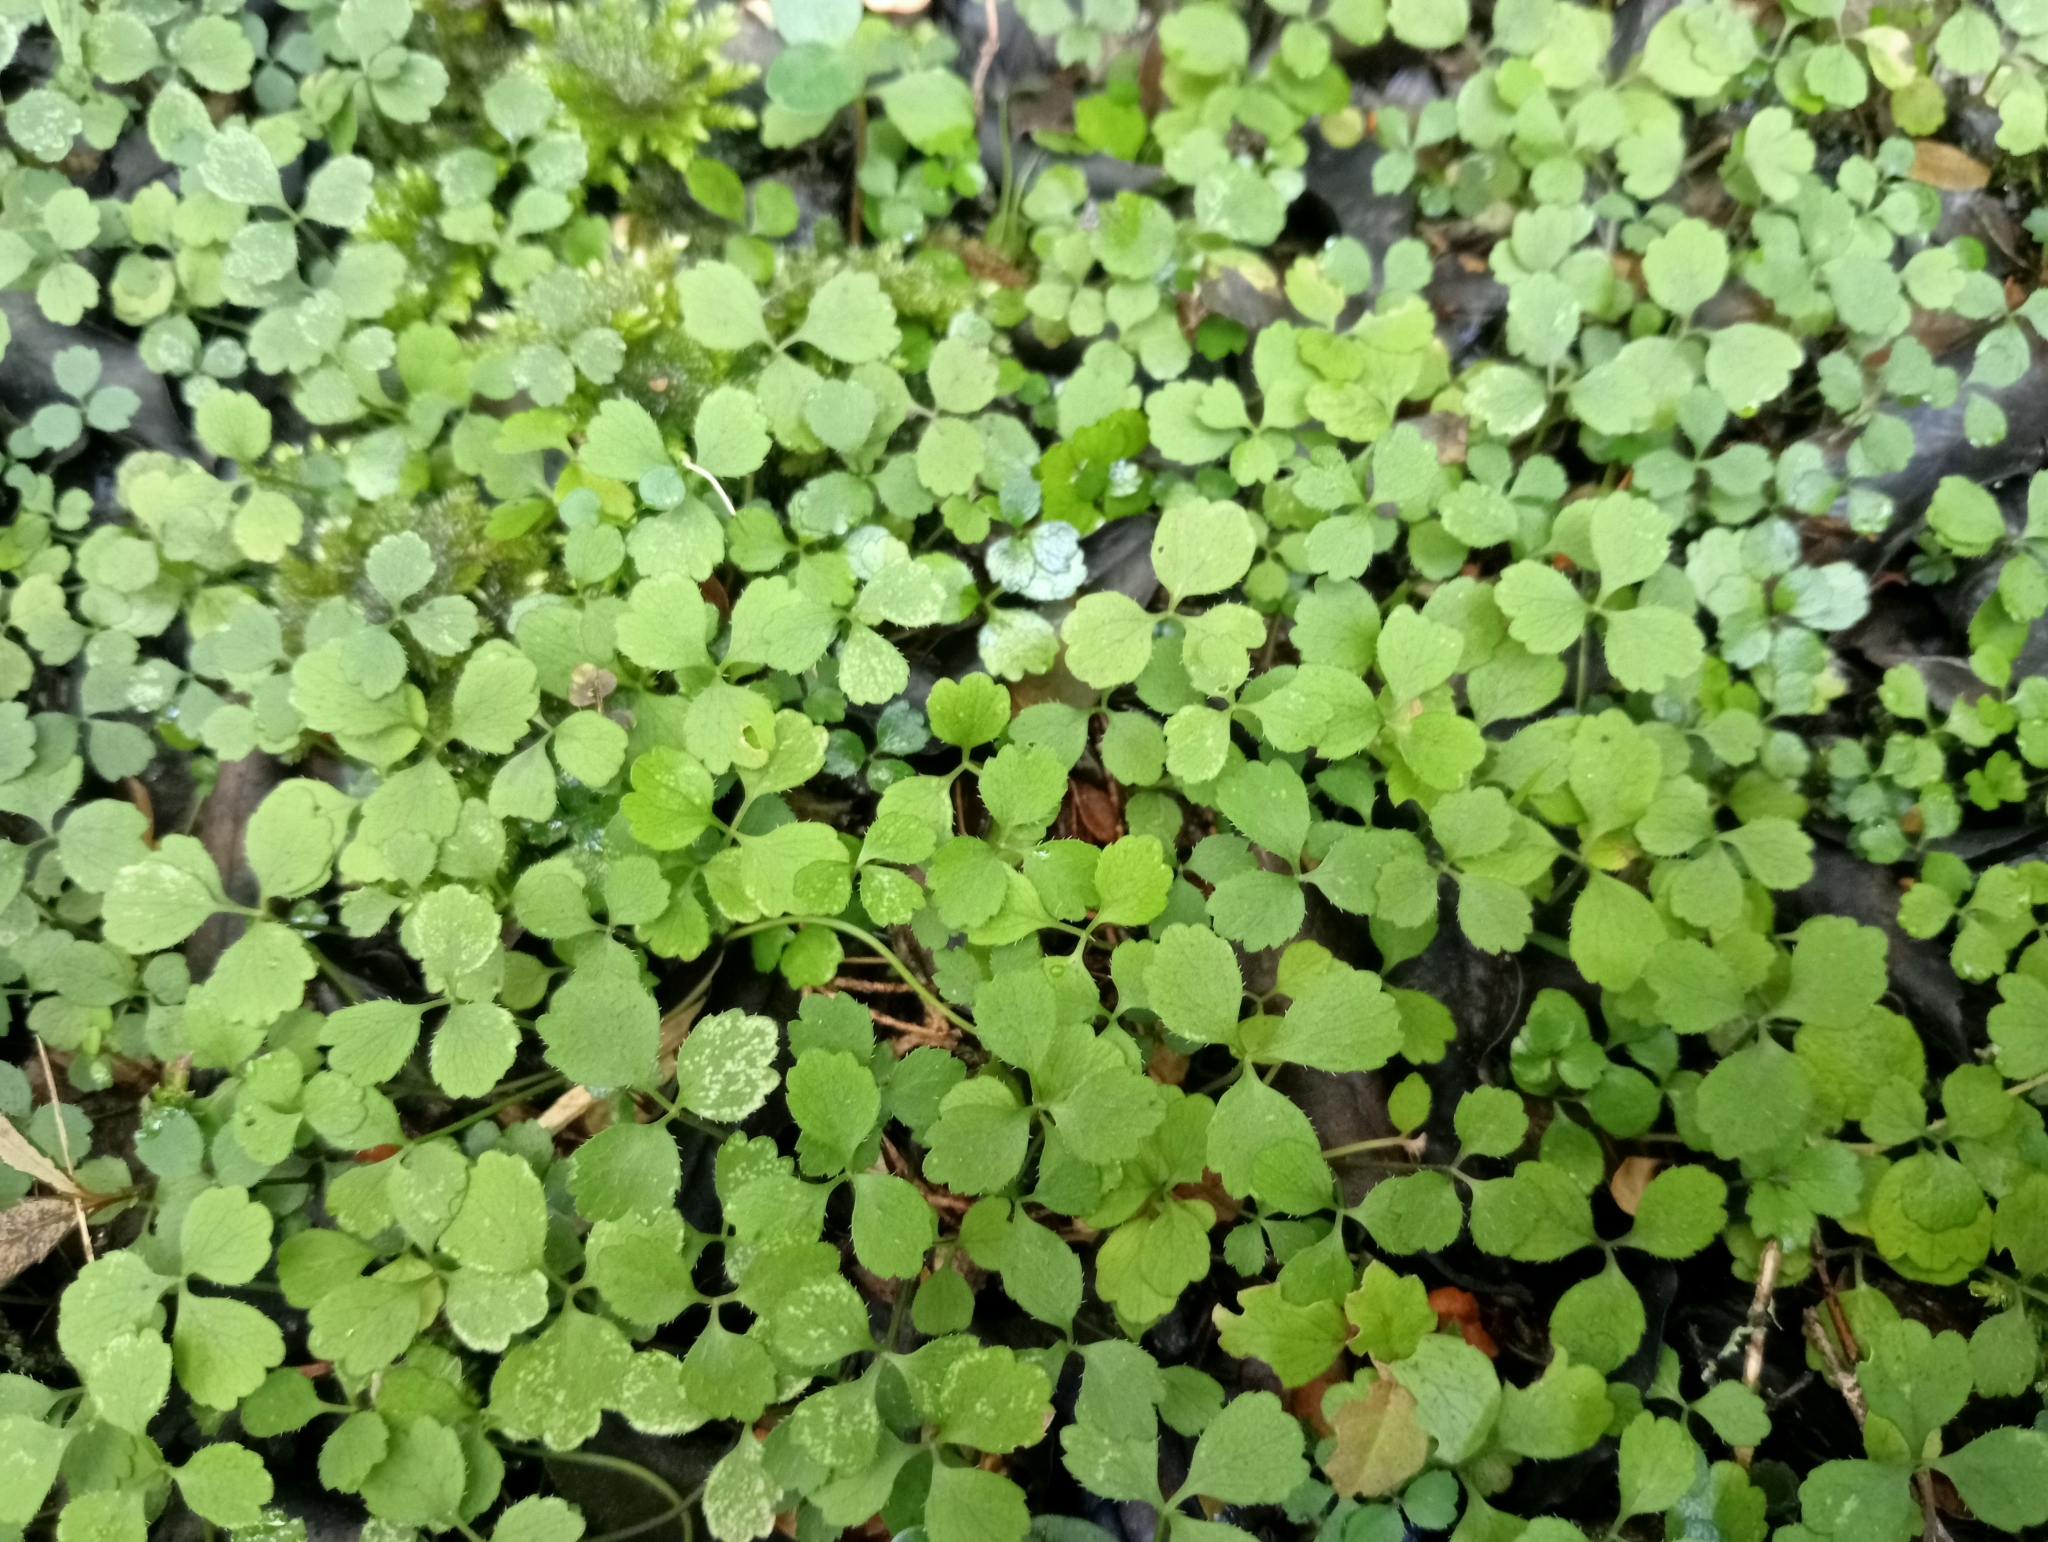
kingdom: Plantae
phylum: Tracheophyta
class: Magnoliopsida
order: Apiales
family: Apiaceae
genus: Azorella
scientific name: Azorella hookeri
